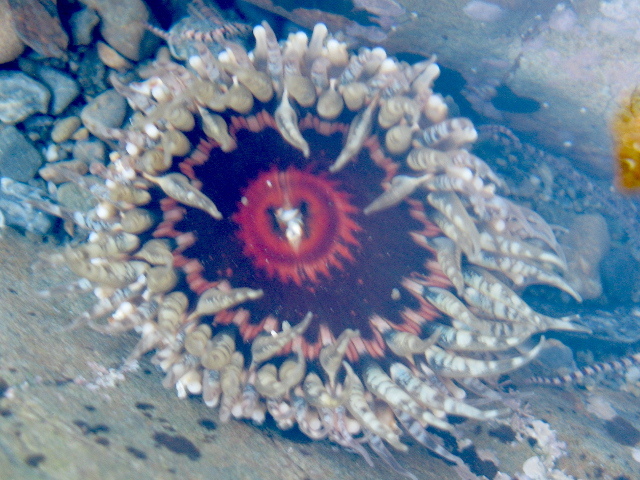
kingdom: Animalia
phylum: Cnidaria
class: Anthozoa
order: Actiniaria
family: Actiniidae
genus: Oulactis
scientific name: Oulactis muscosa
